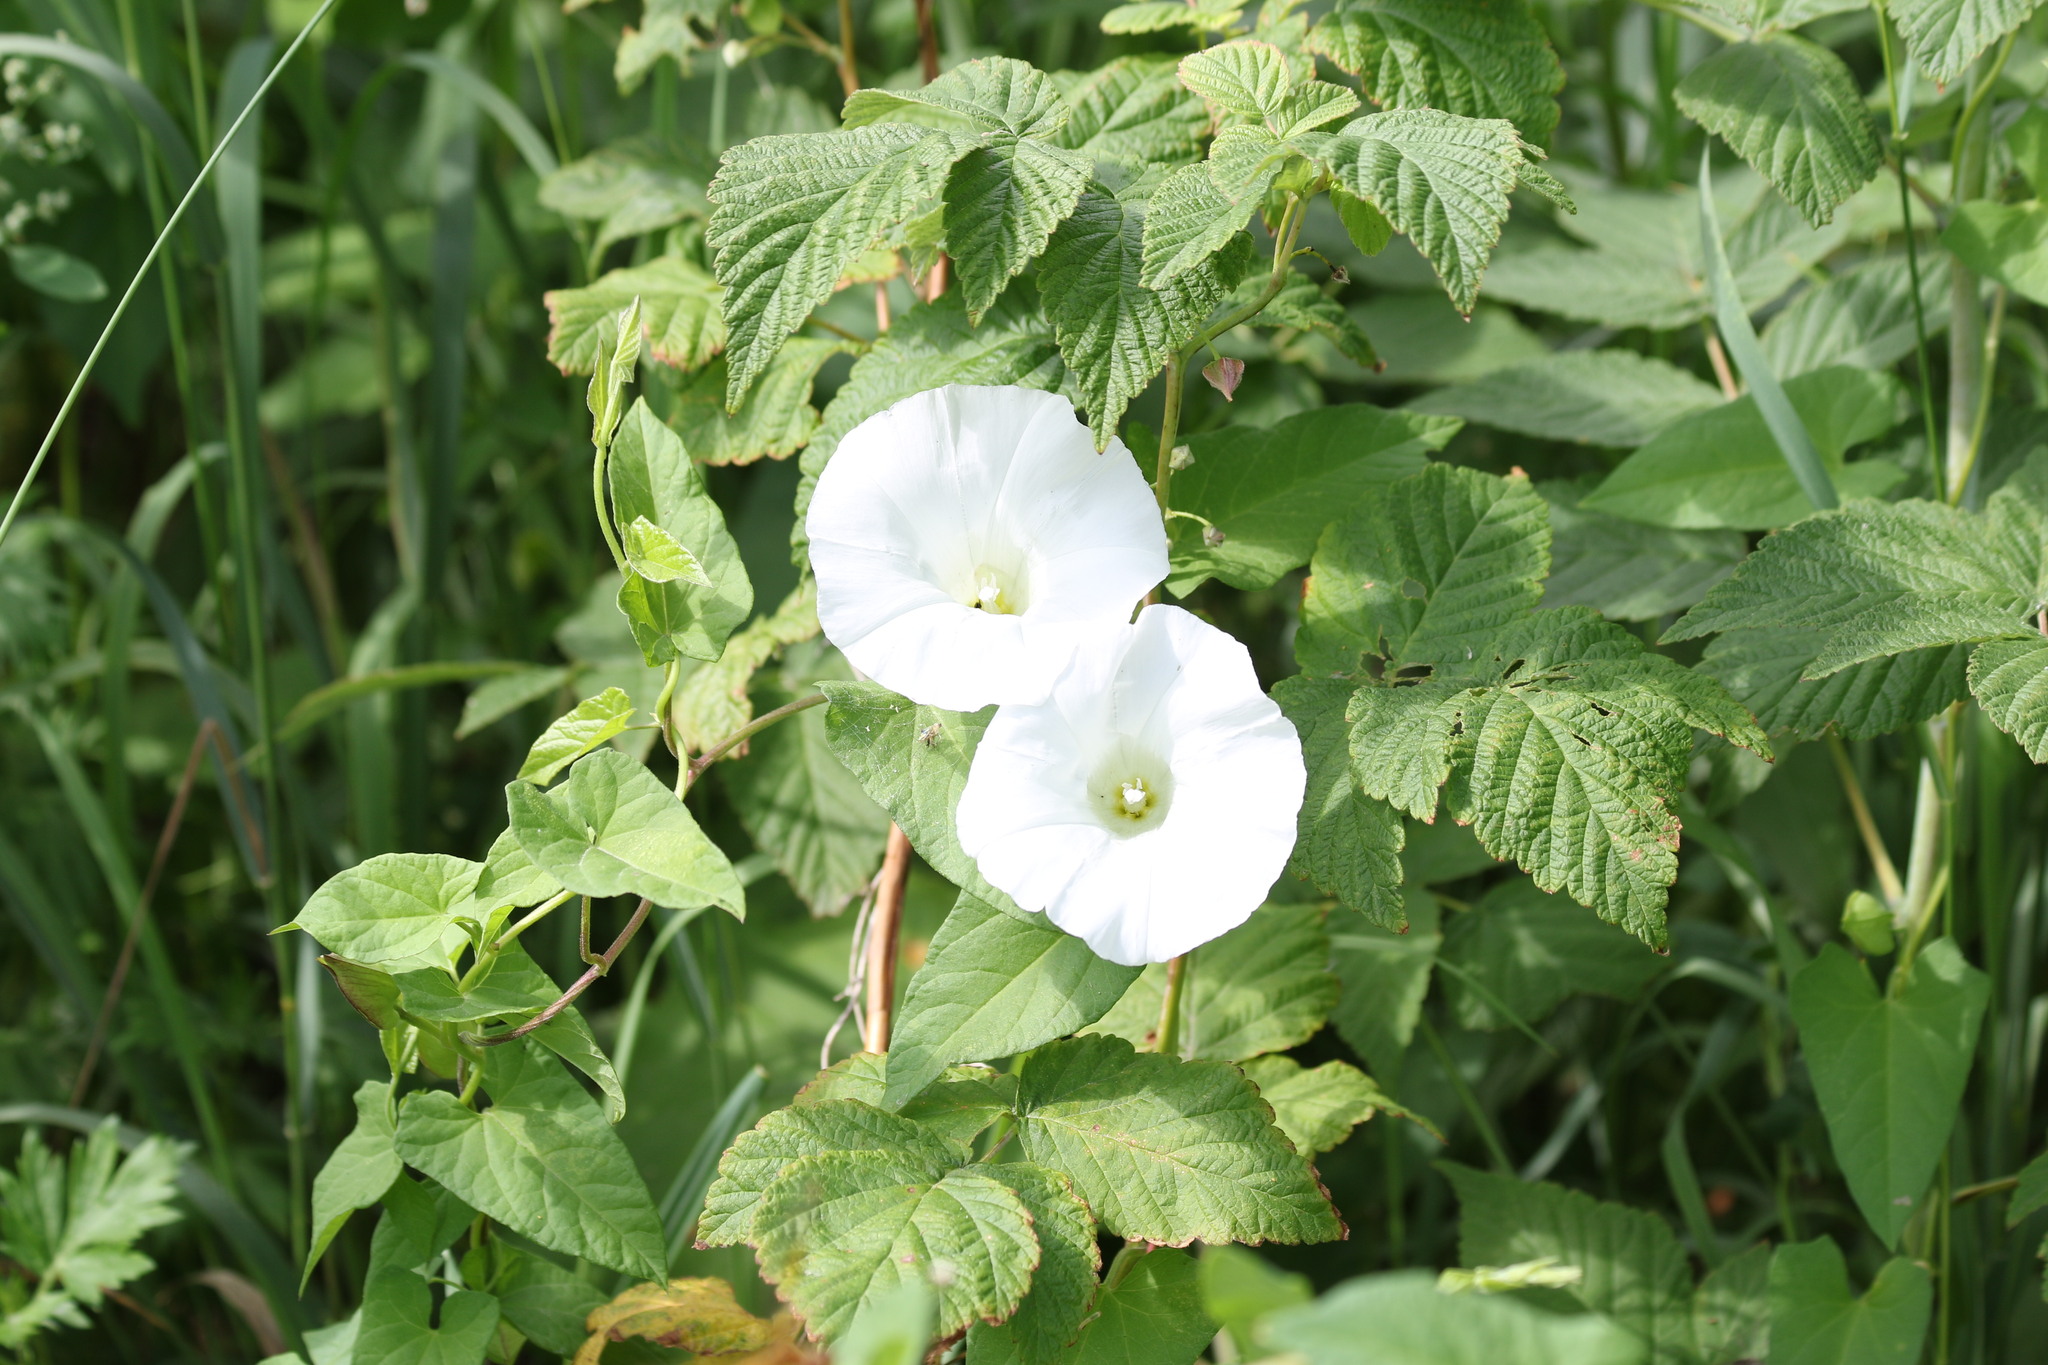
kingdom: Plantae
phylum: Tracheophyta
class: Magnoliopsida
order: Solanales
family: Convolvulaceae
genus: Calystegia
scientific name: Calystegia sepium
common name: Hedge bindweed
